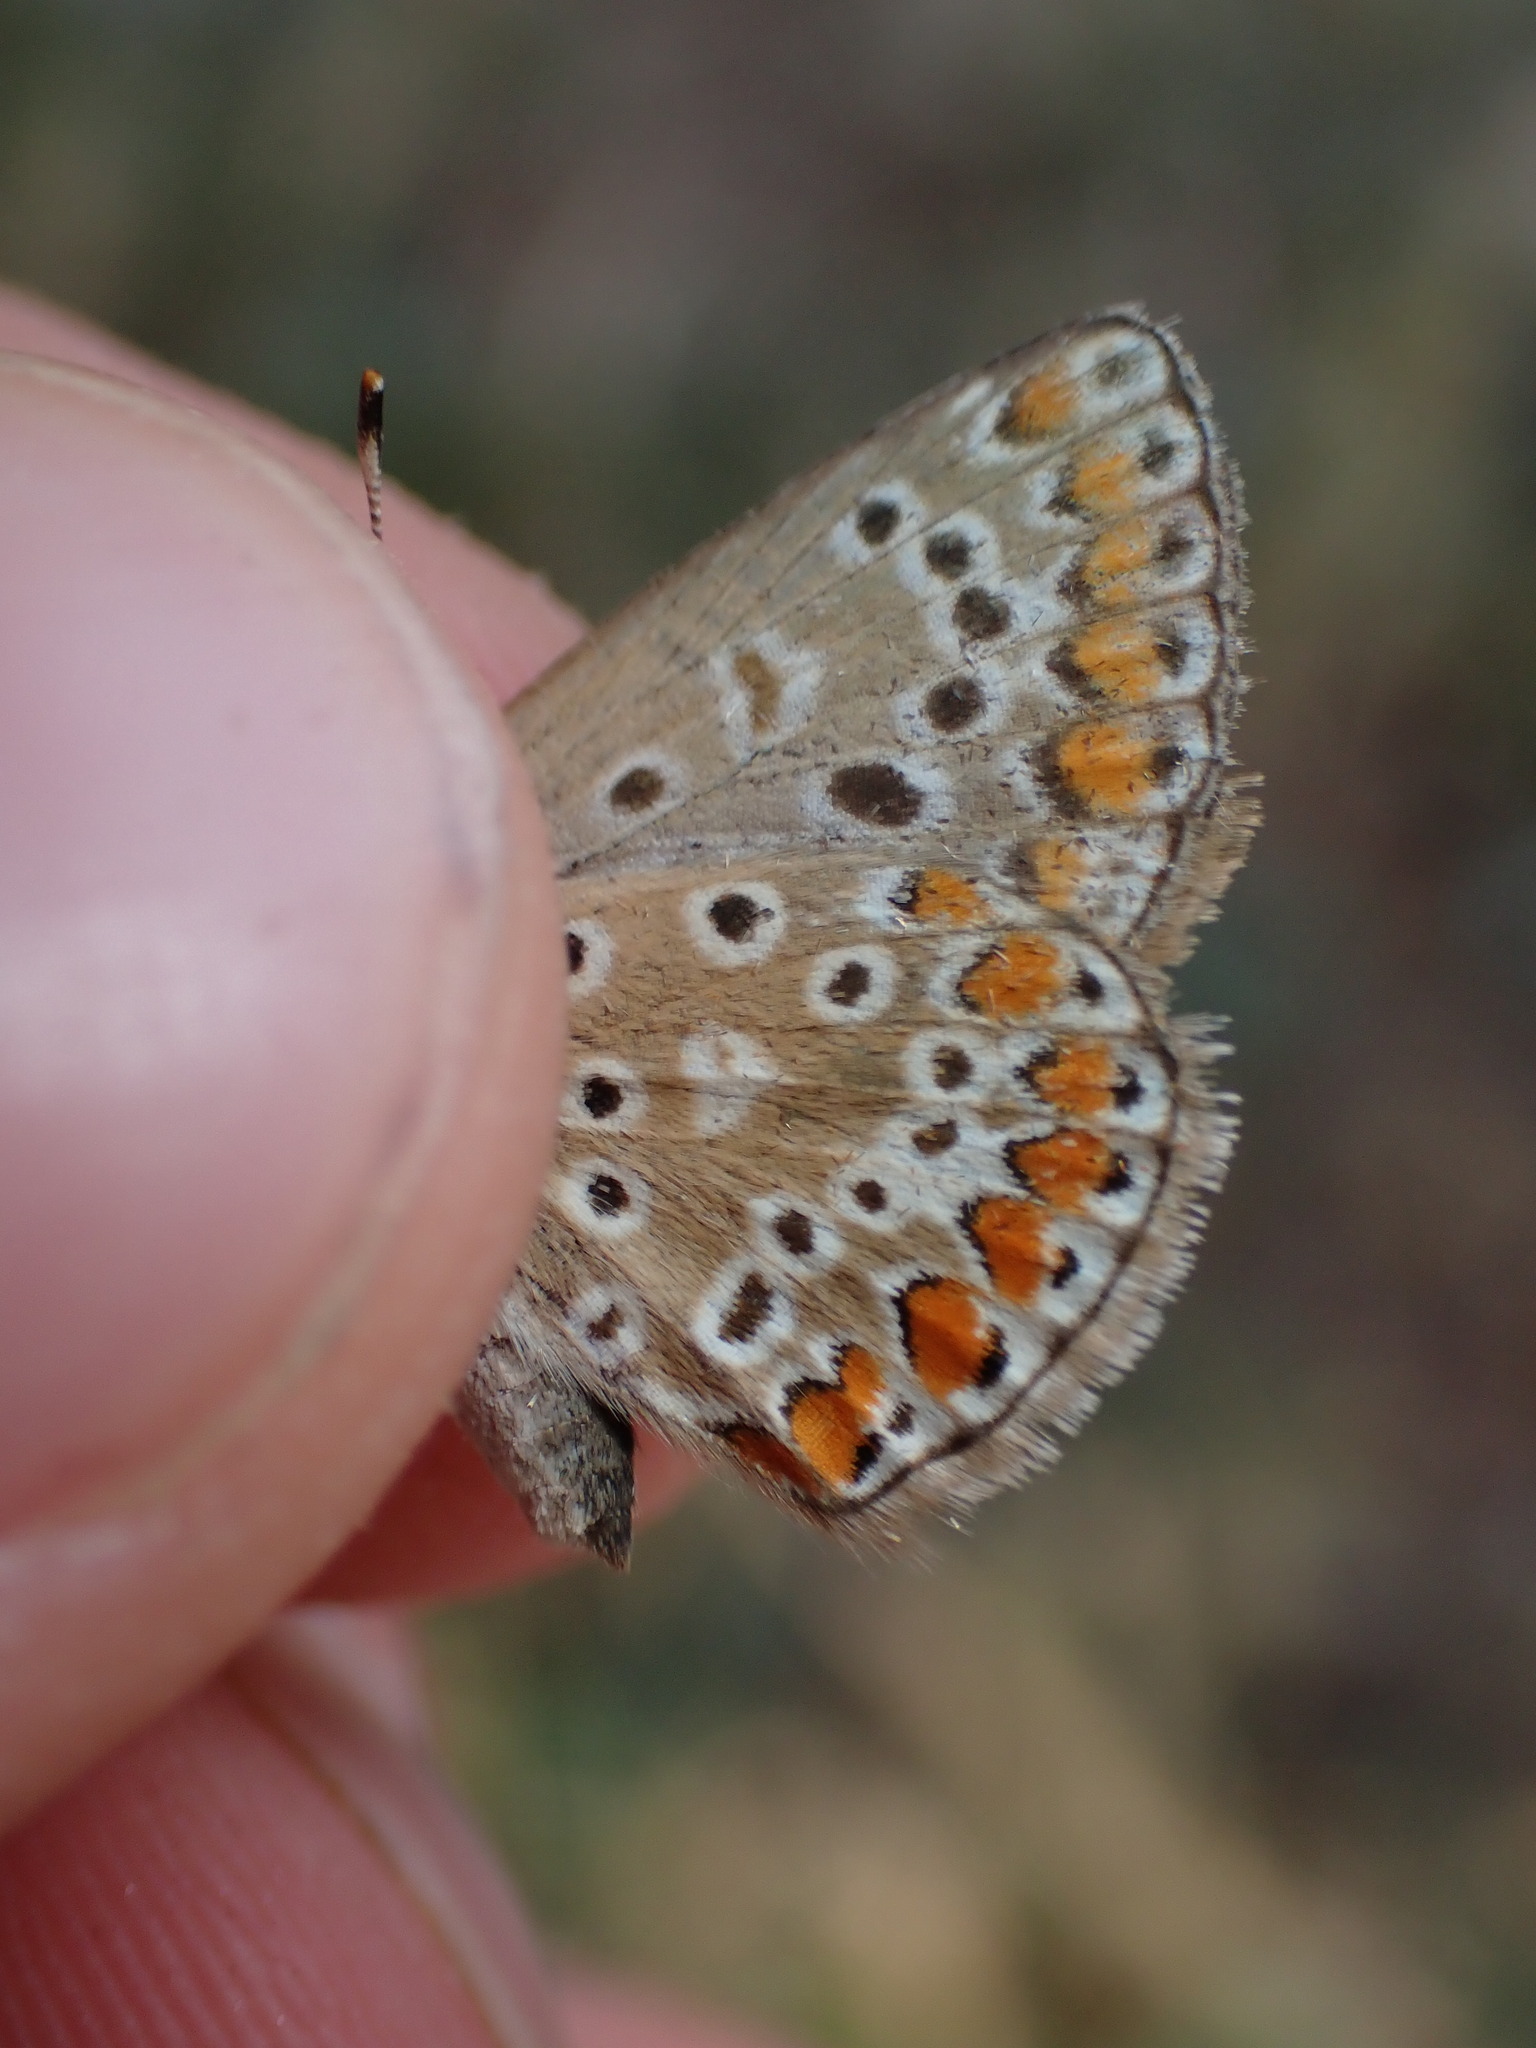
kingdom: Animalia
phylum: Arthropoda
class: Insecta
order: Lepidoptera
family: Lycaenidae
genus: Polyommatus
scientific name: Polyommatus icarus
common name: Common blue
